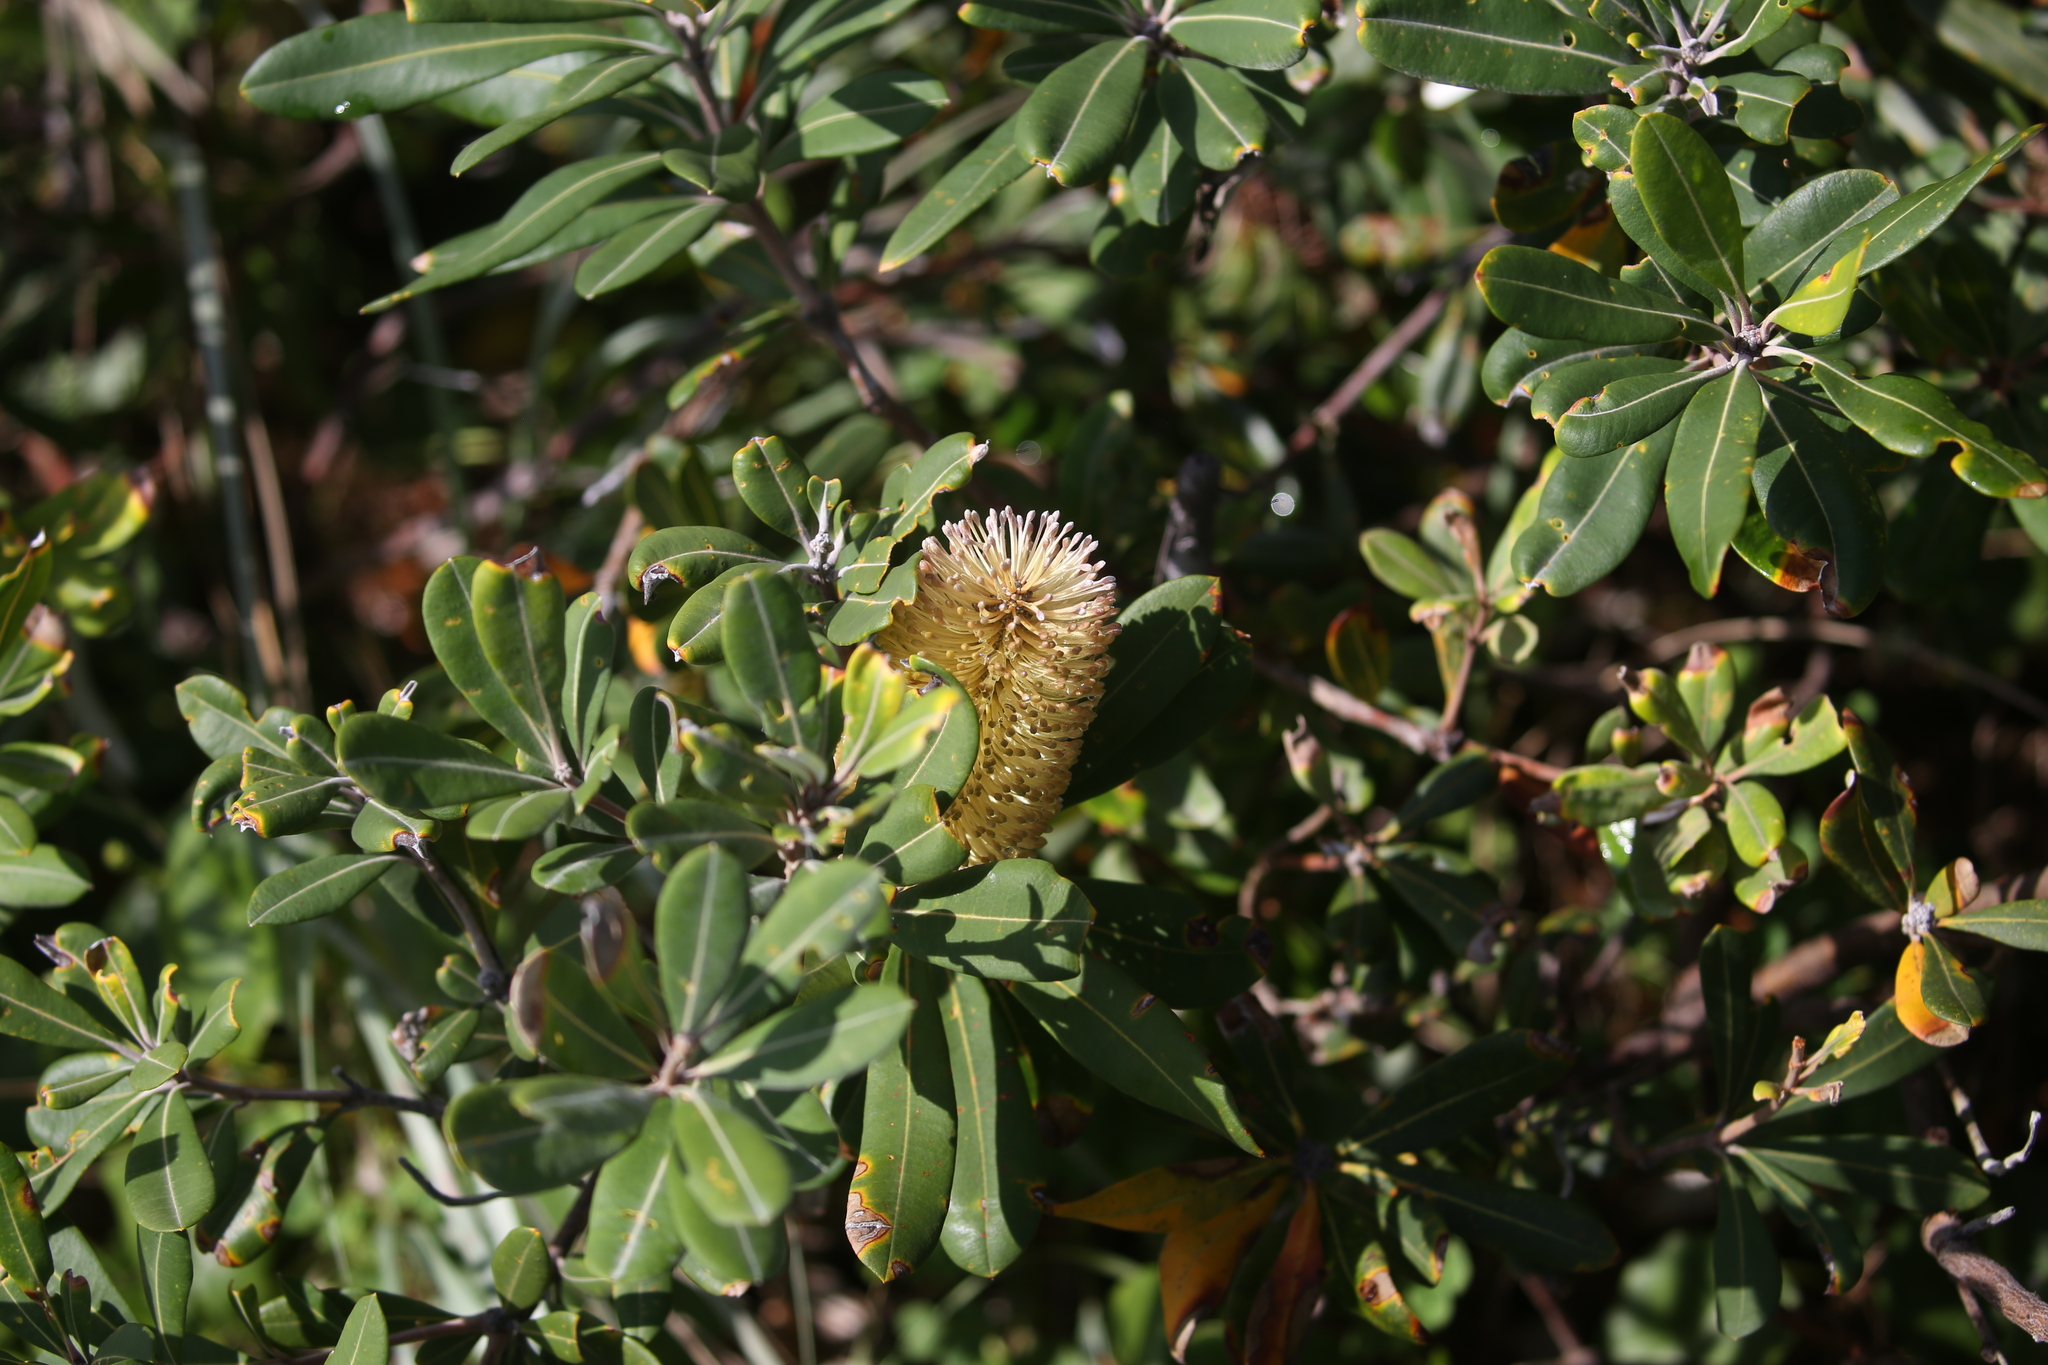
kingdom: Plantae
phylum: Tracheophyta
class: Magnoliopsida
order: Proteales
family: Proteaceae
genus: Banksia
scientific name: Banksia integrifolia
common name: White-honeysuckle
